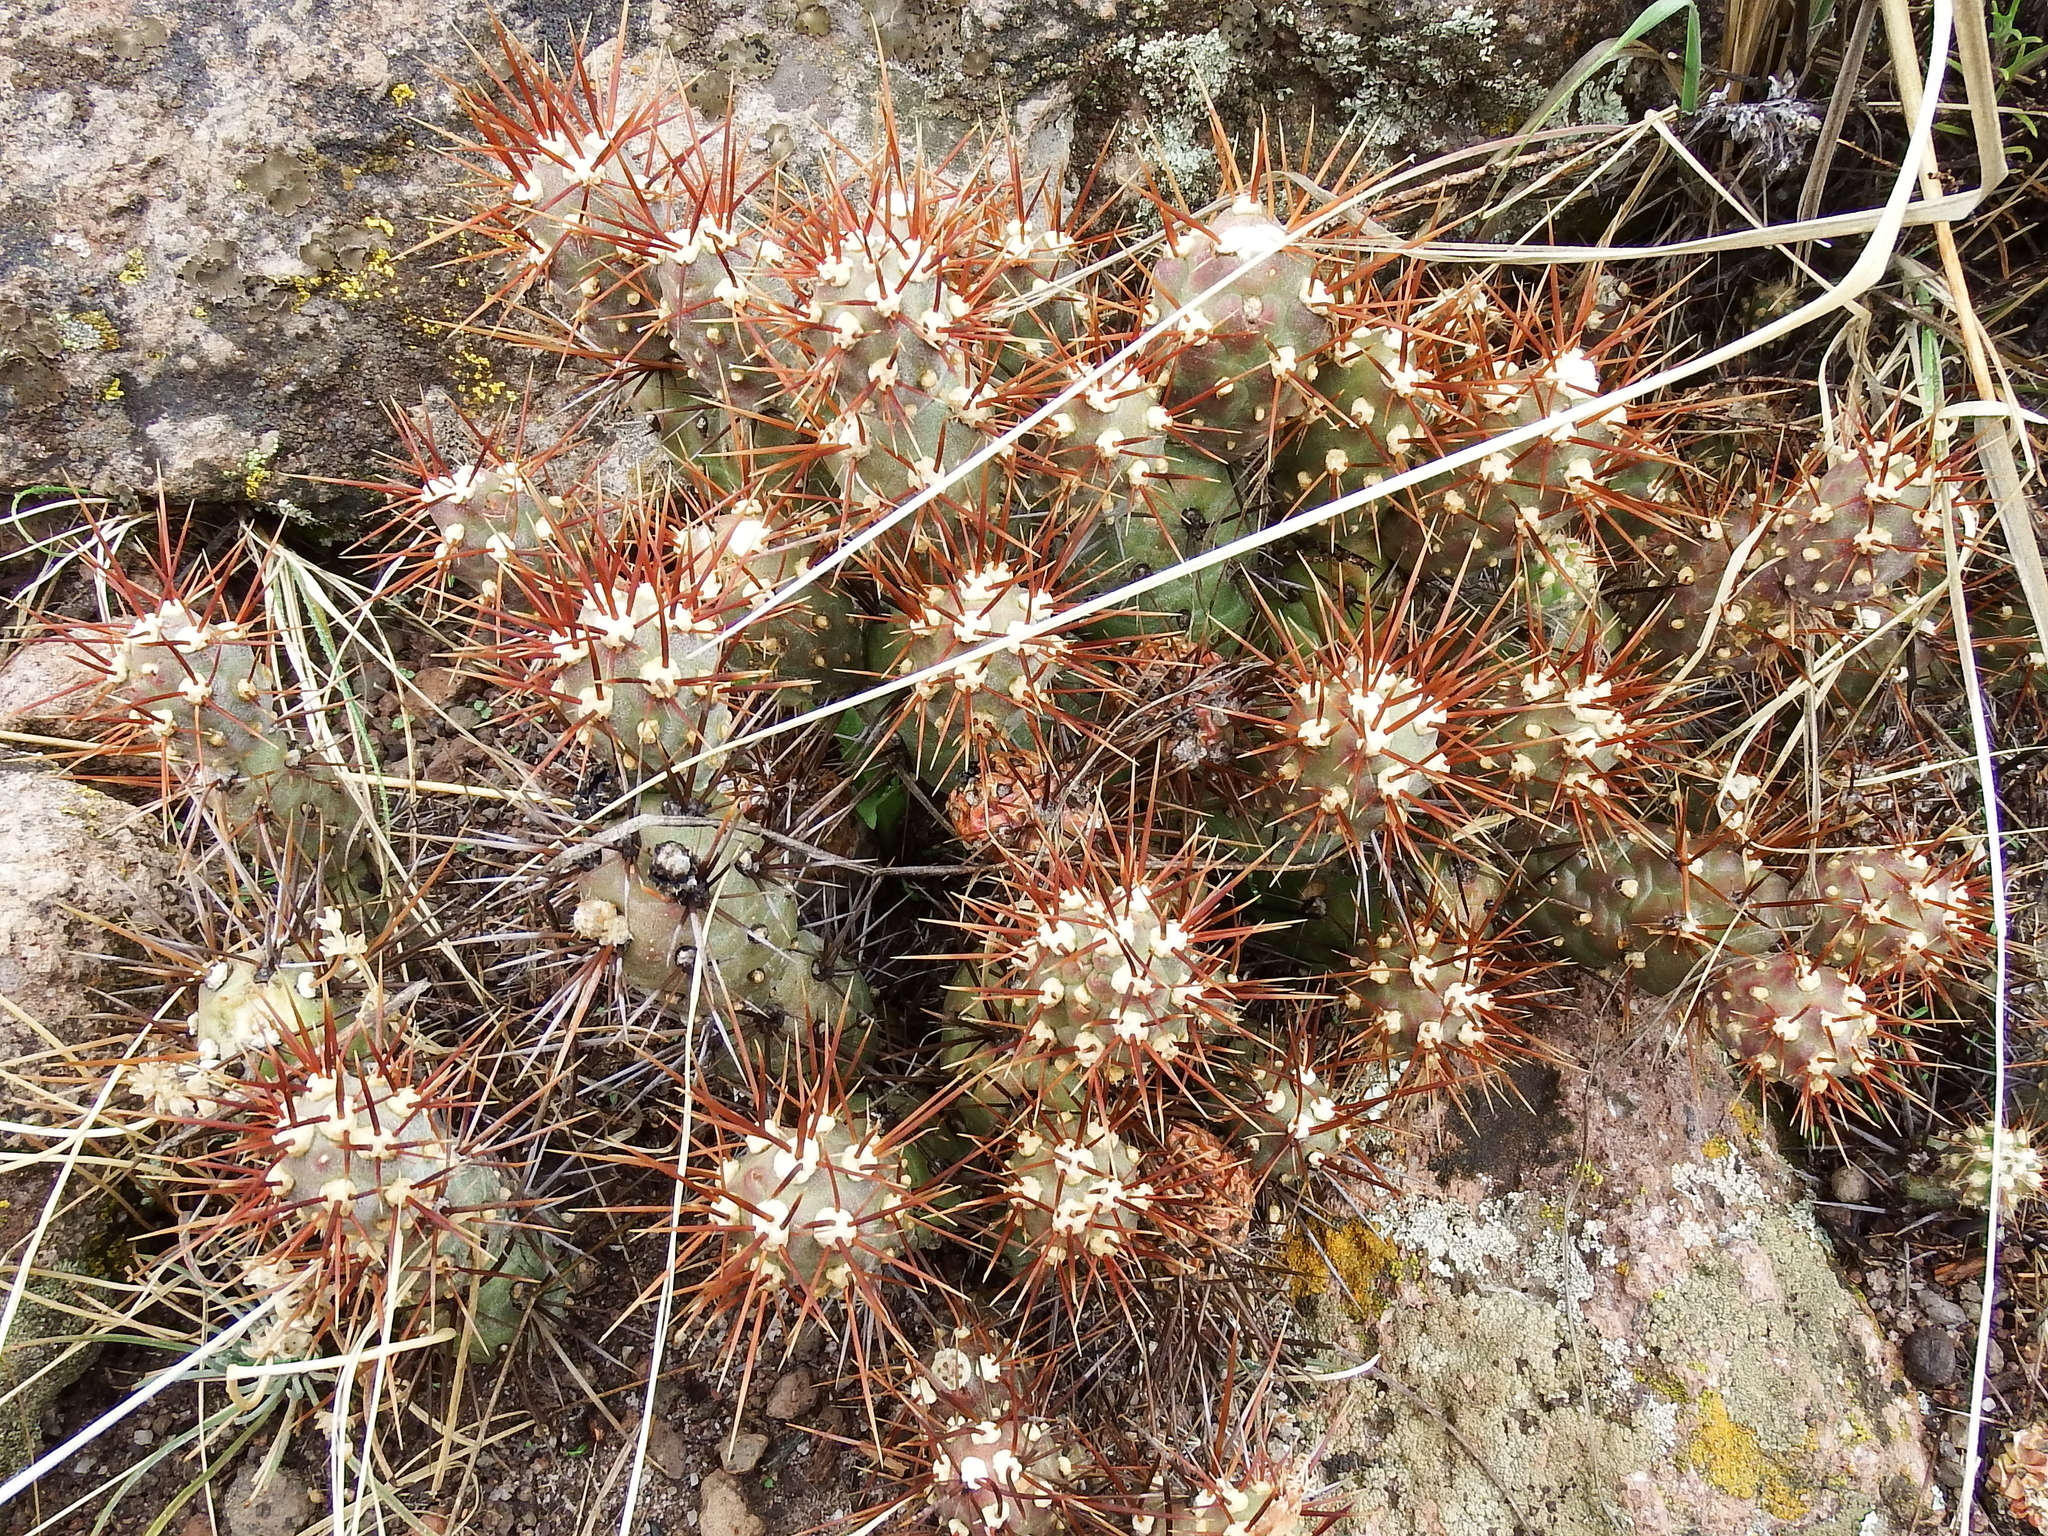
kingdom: Plantae
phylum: Tracheophyta
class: Magnoliopsida
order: Caryophyllales
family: Cactaceae
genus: Cumulopuntia
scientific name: Cumulopuntia leucophaea
